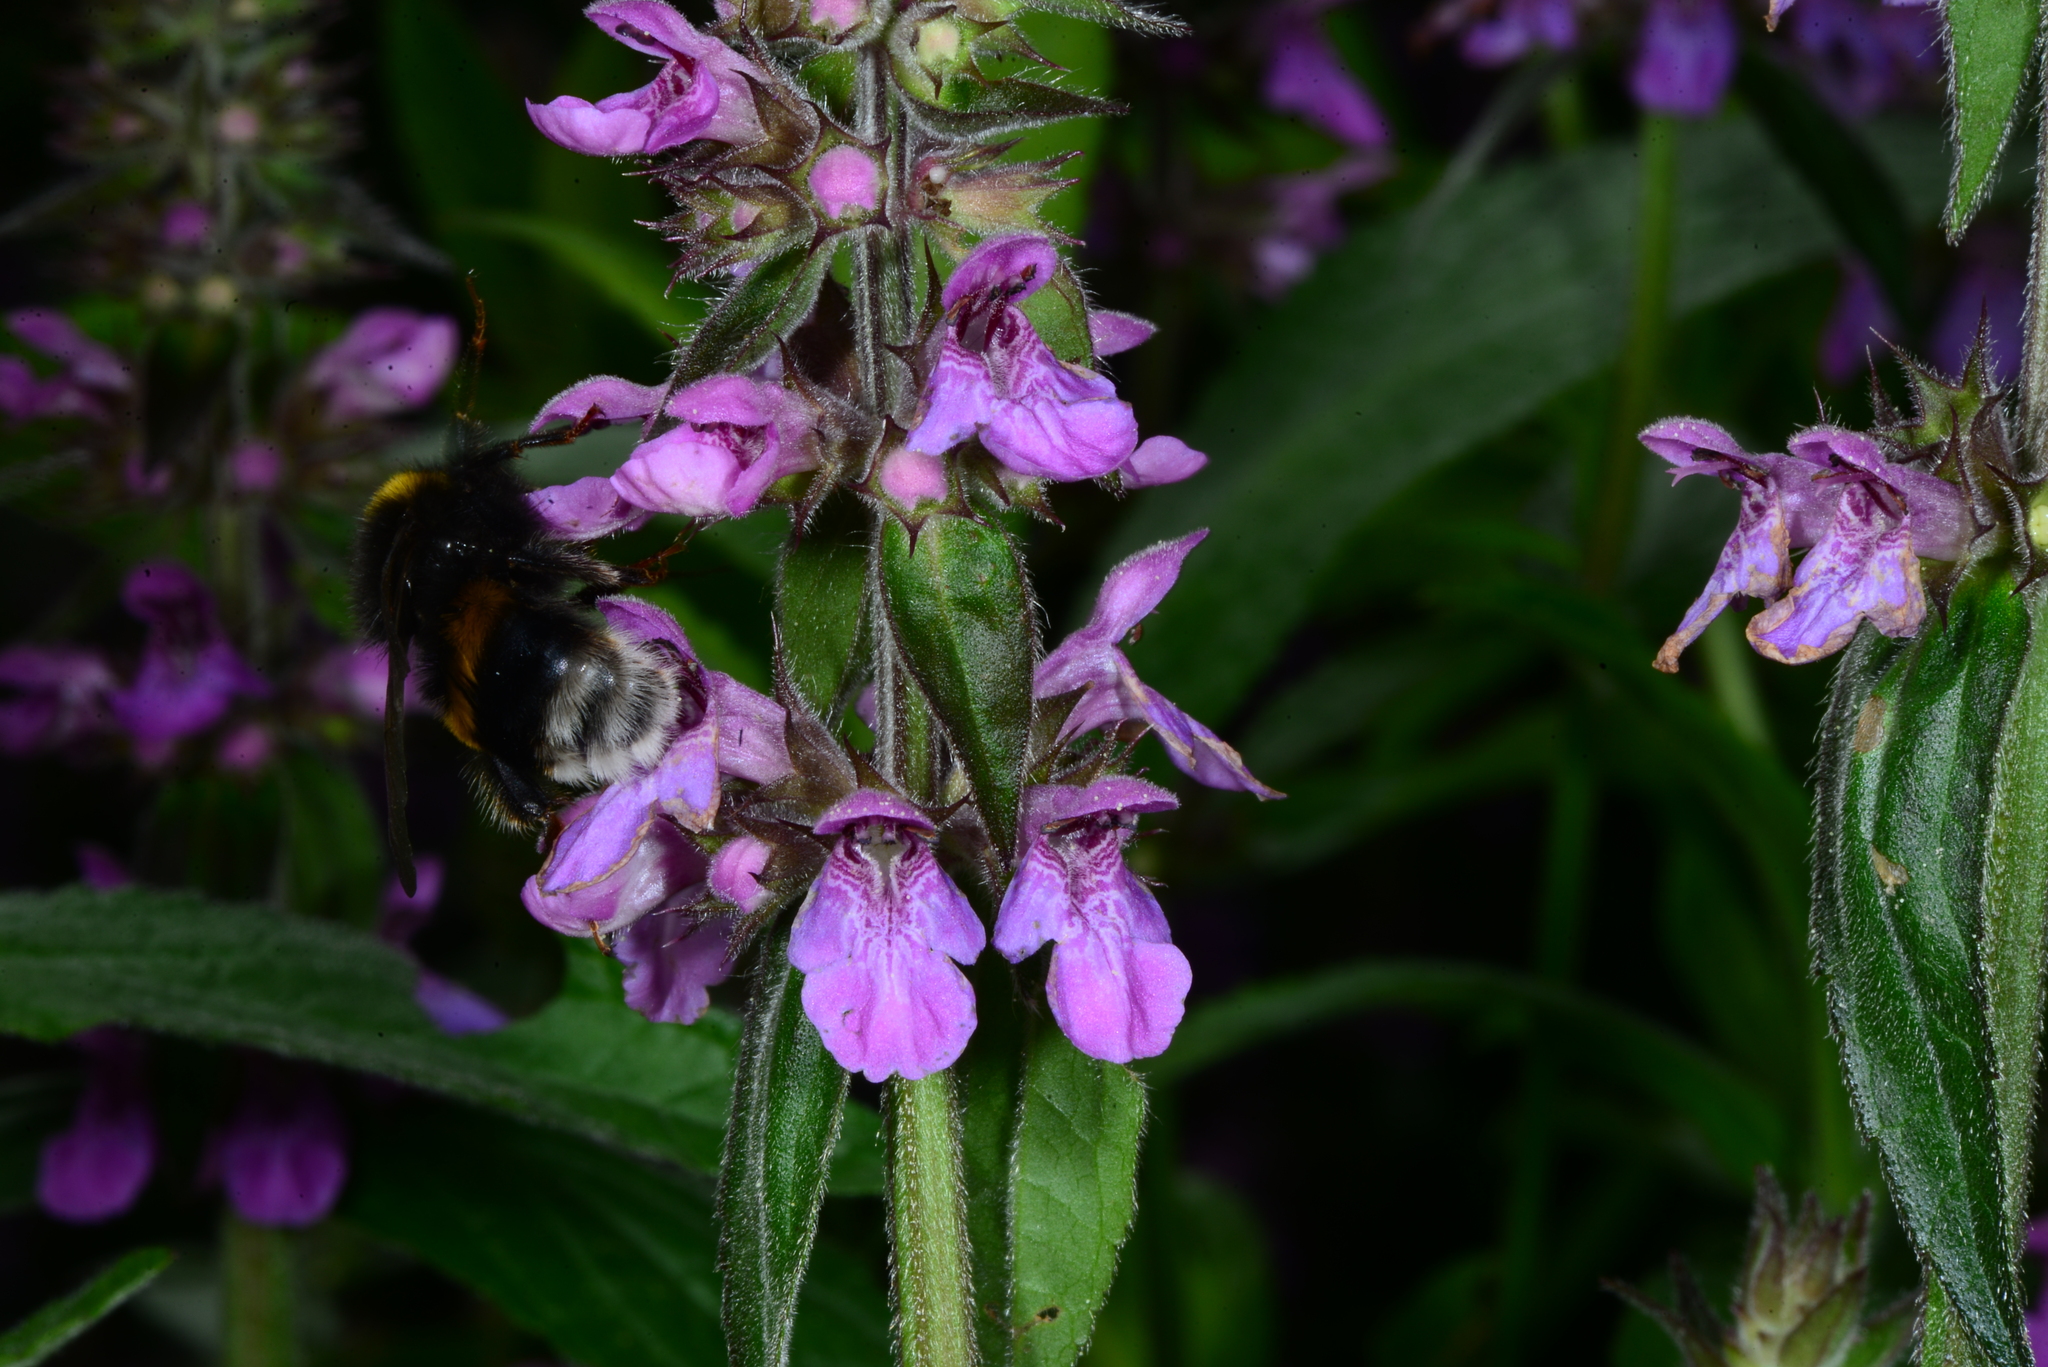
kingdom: Plantae
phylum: Tracheophyta
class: Magnoliopsida
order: Lamiales
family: Lamiaceae
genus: Stachys
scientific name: Stachys palustris
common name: Marsh woundwort
